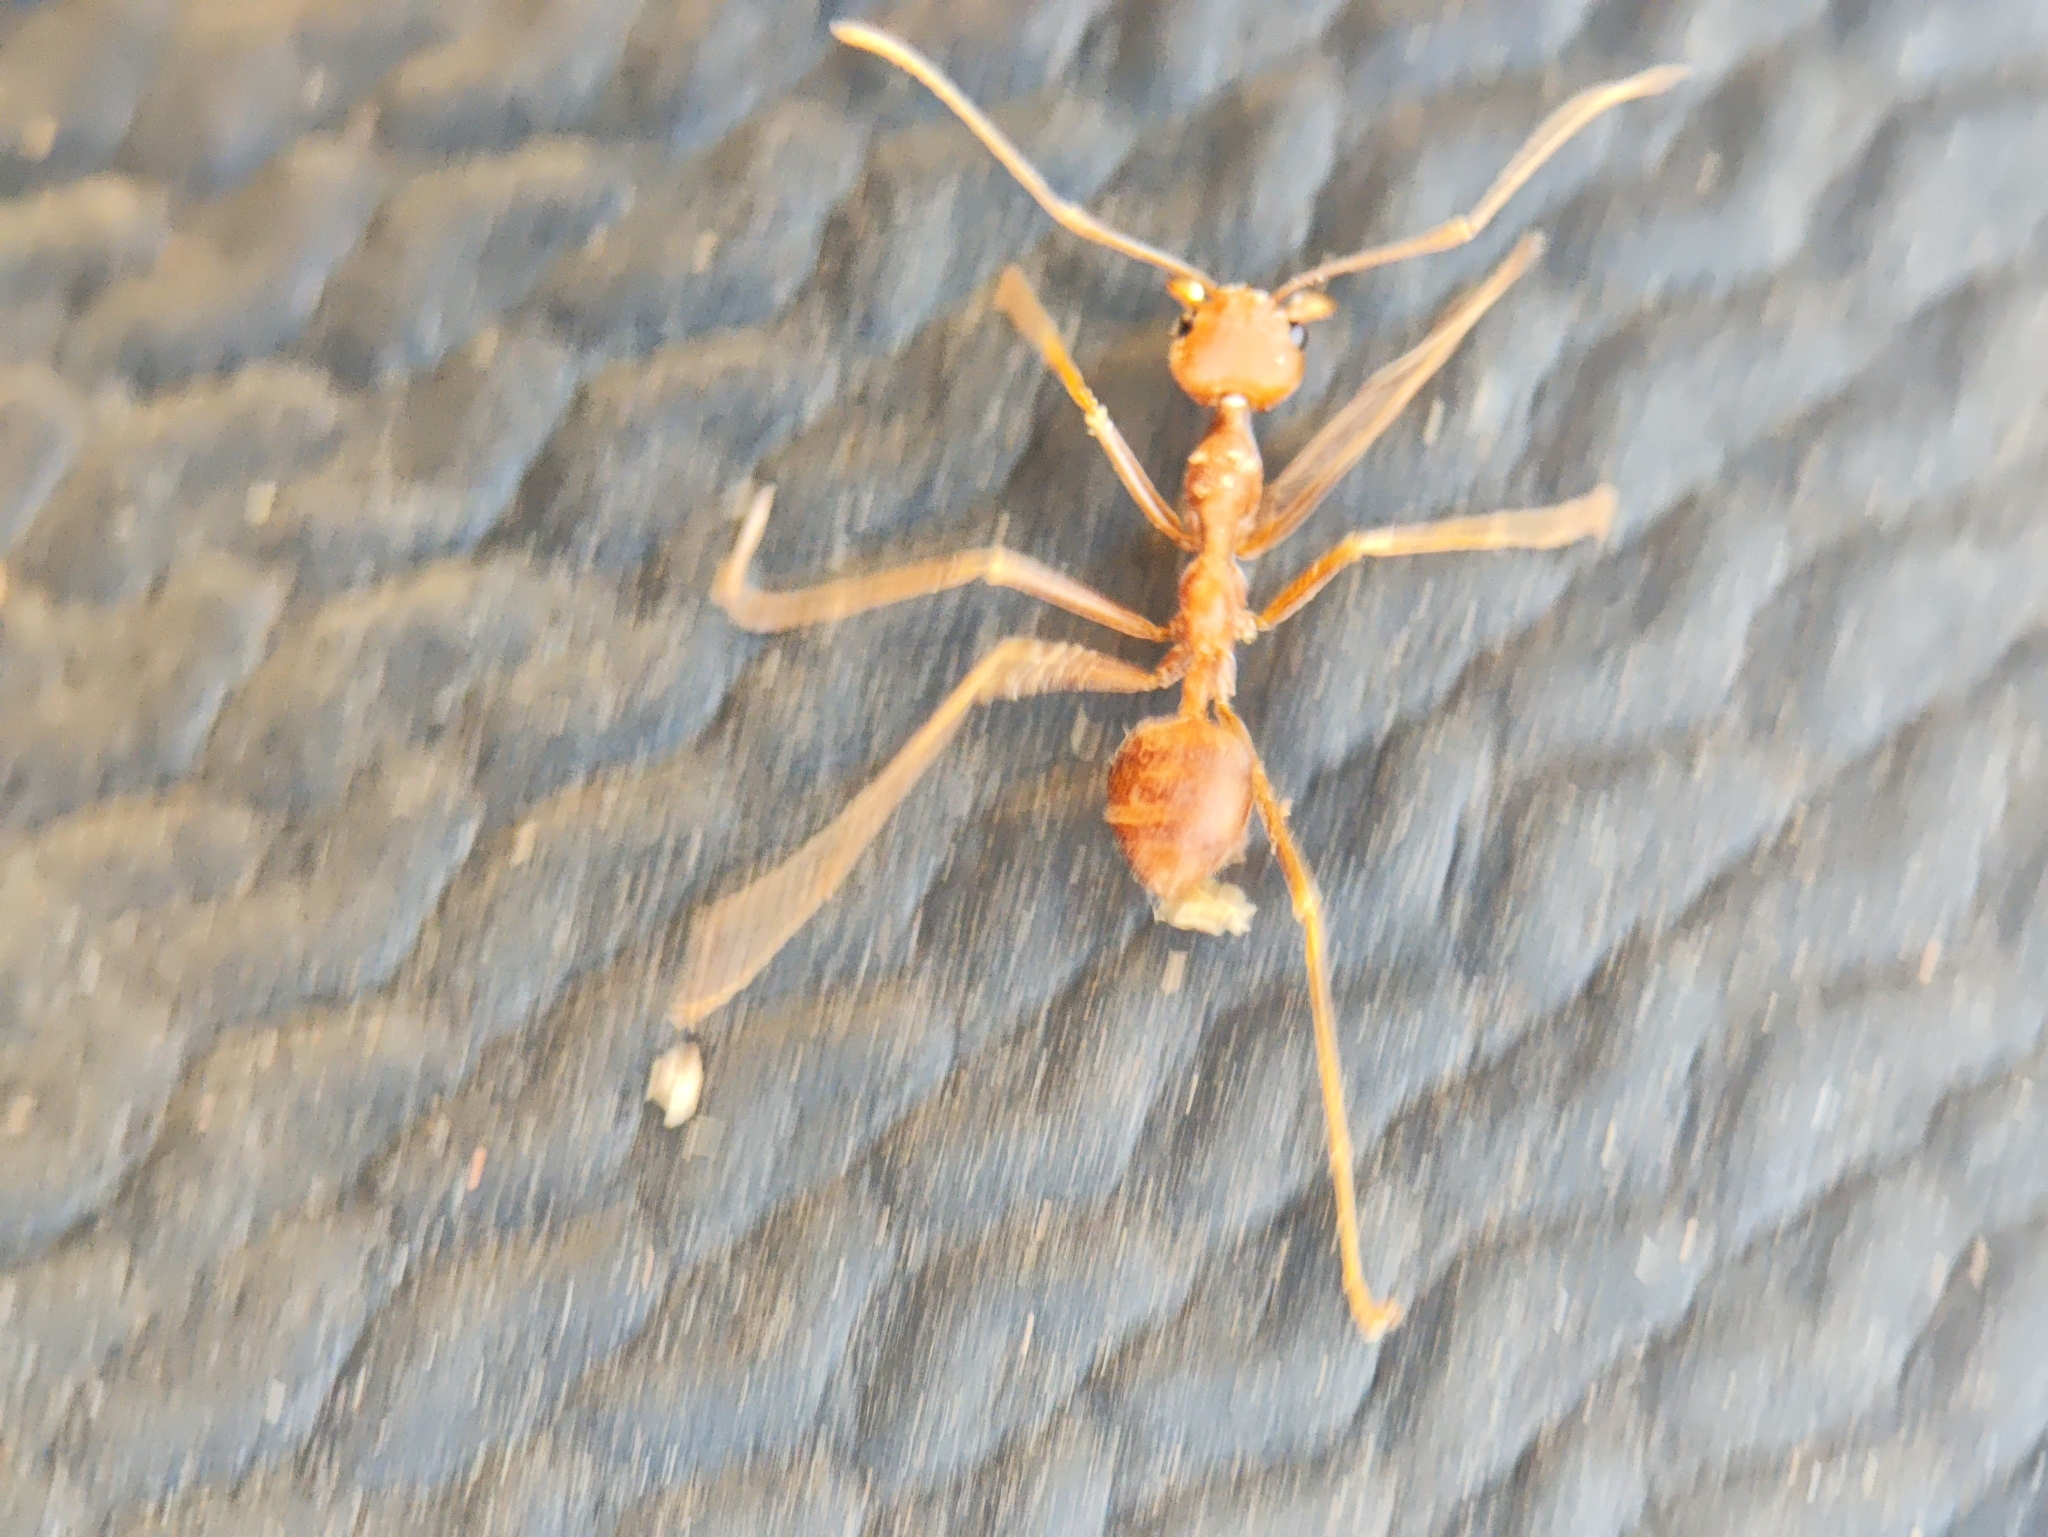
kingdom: Animalia
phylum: Arthropoda
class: Insecta
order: Hymenoptera
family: Formicidae
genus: Oecophylla
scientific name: Oecophylla smaragdina
